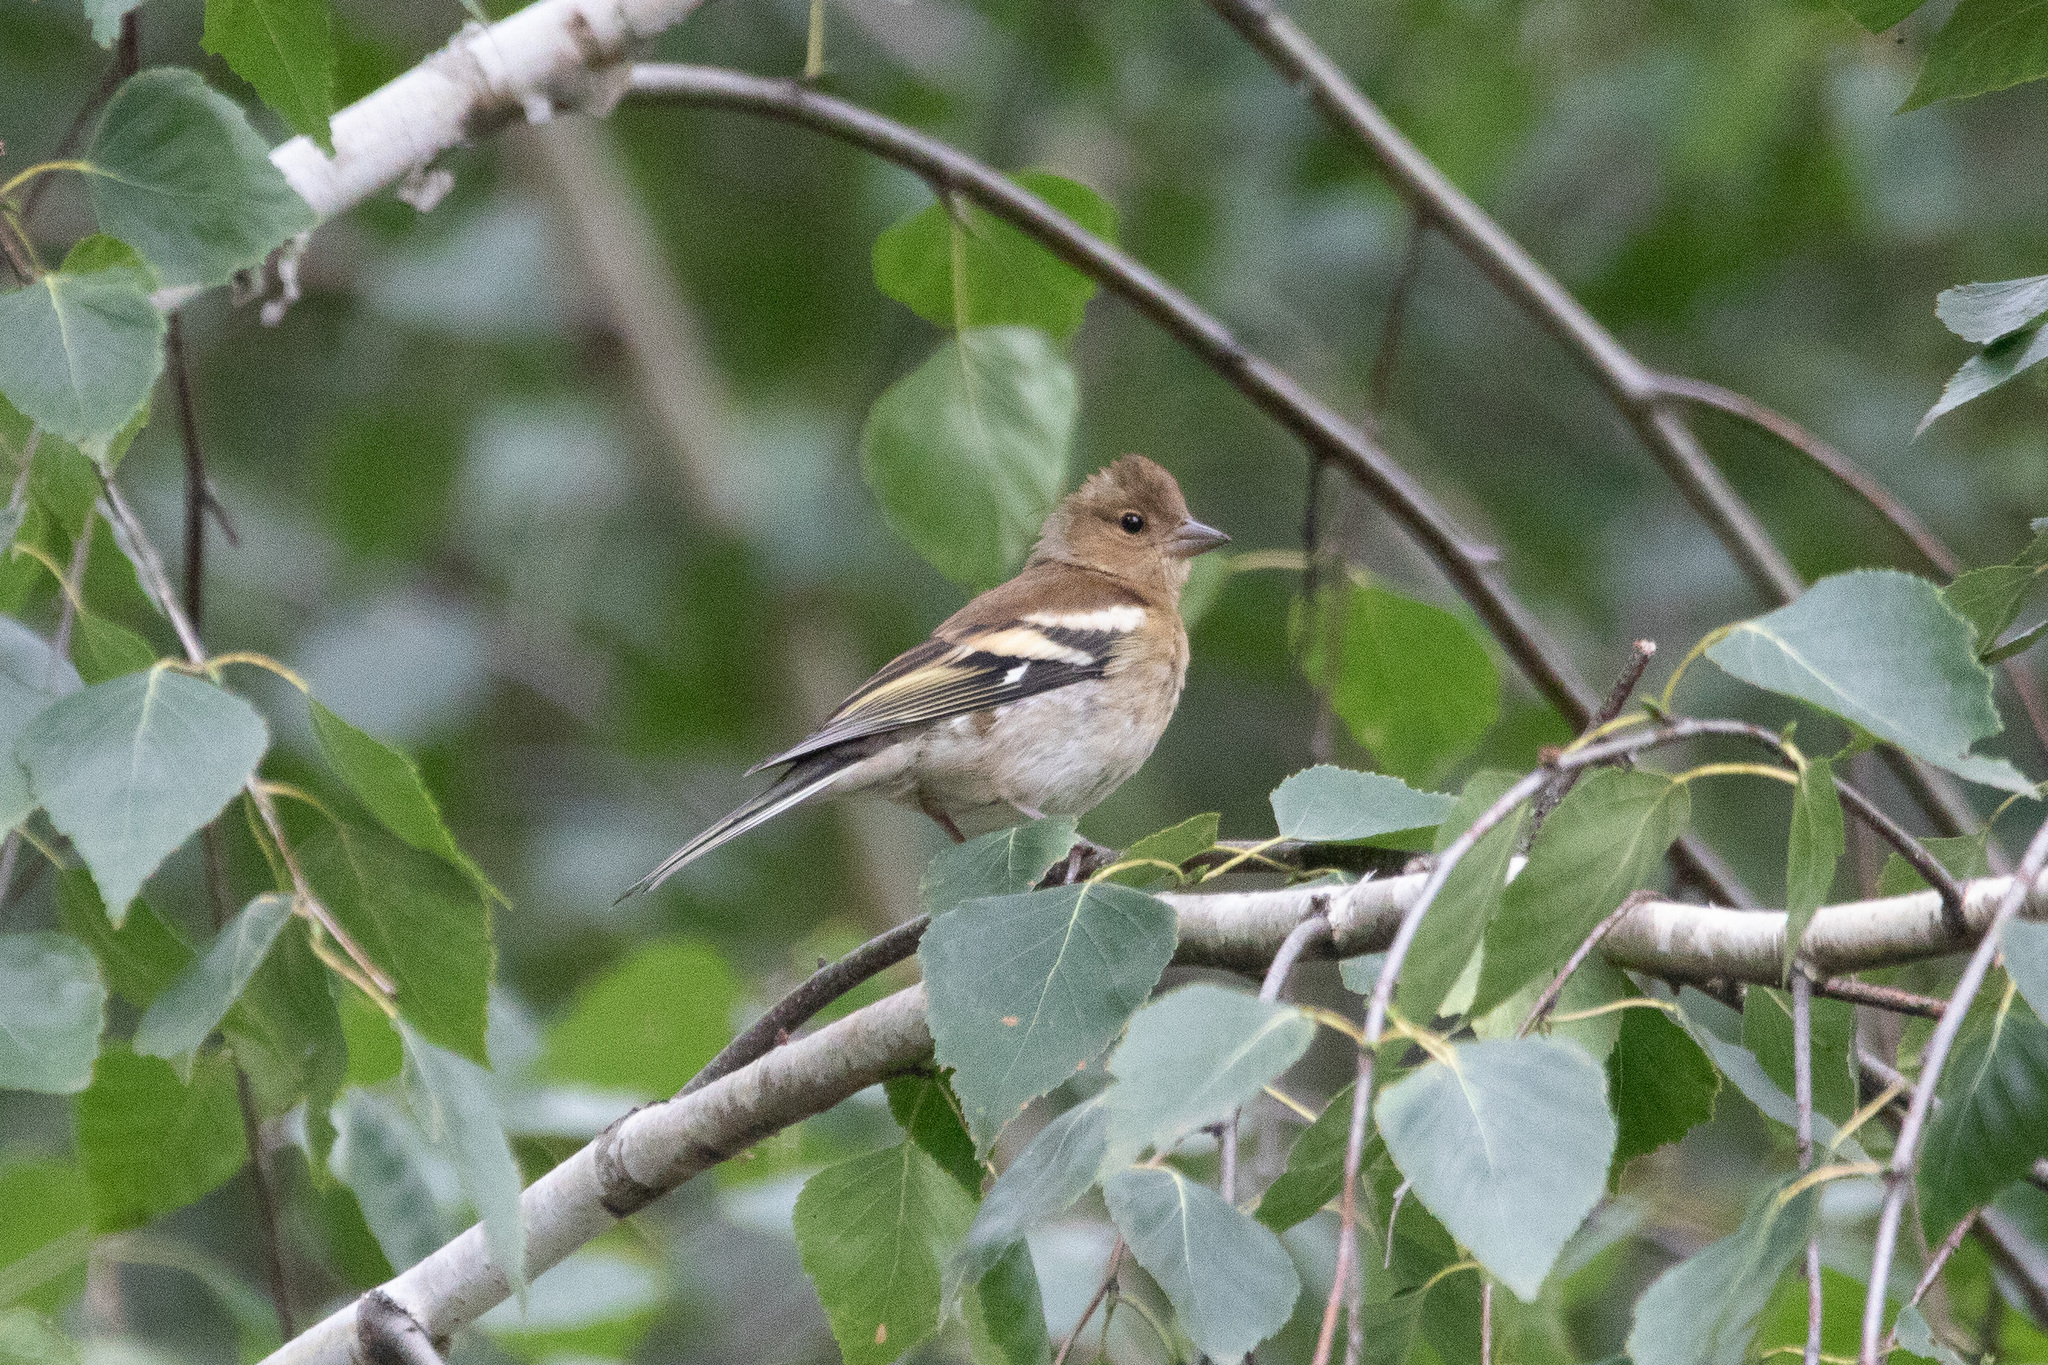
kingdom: Animalia
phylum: Chordata
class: Aves
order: Passeriformes
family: Fringillidae
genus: Fringilla
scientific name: Fringilla coelebs
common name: Common chaffinch
